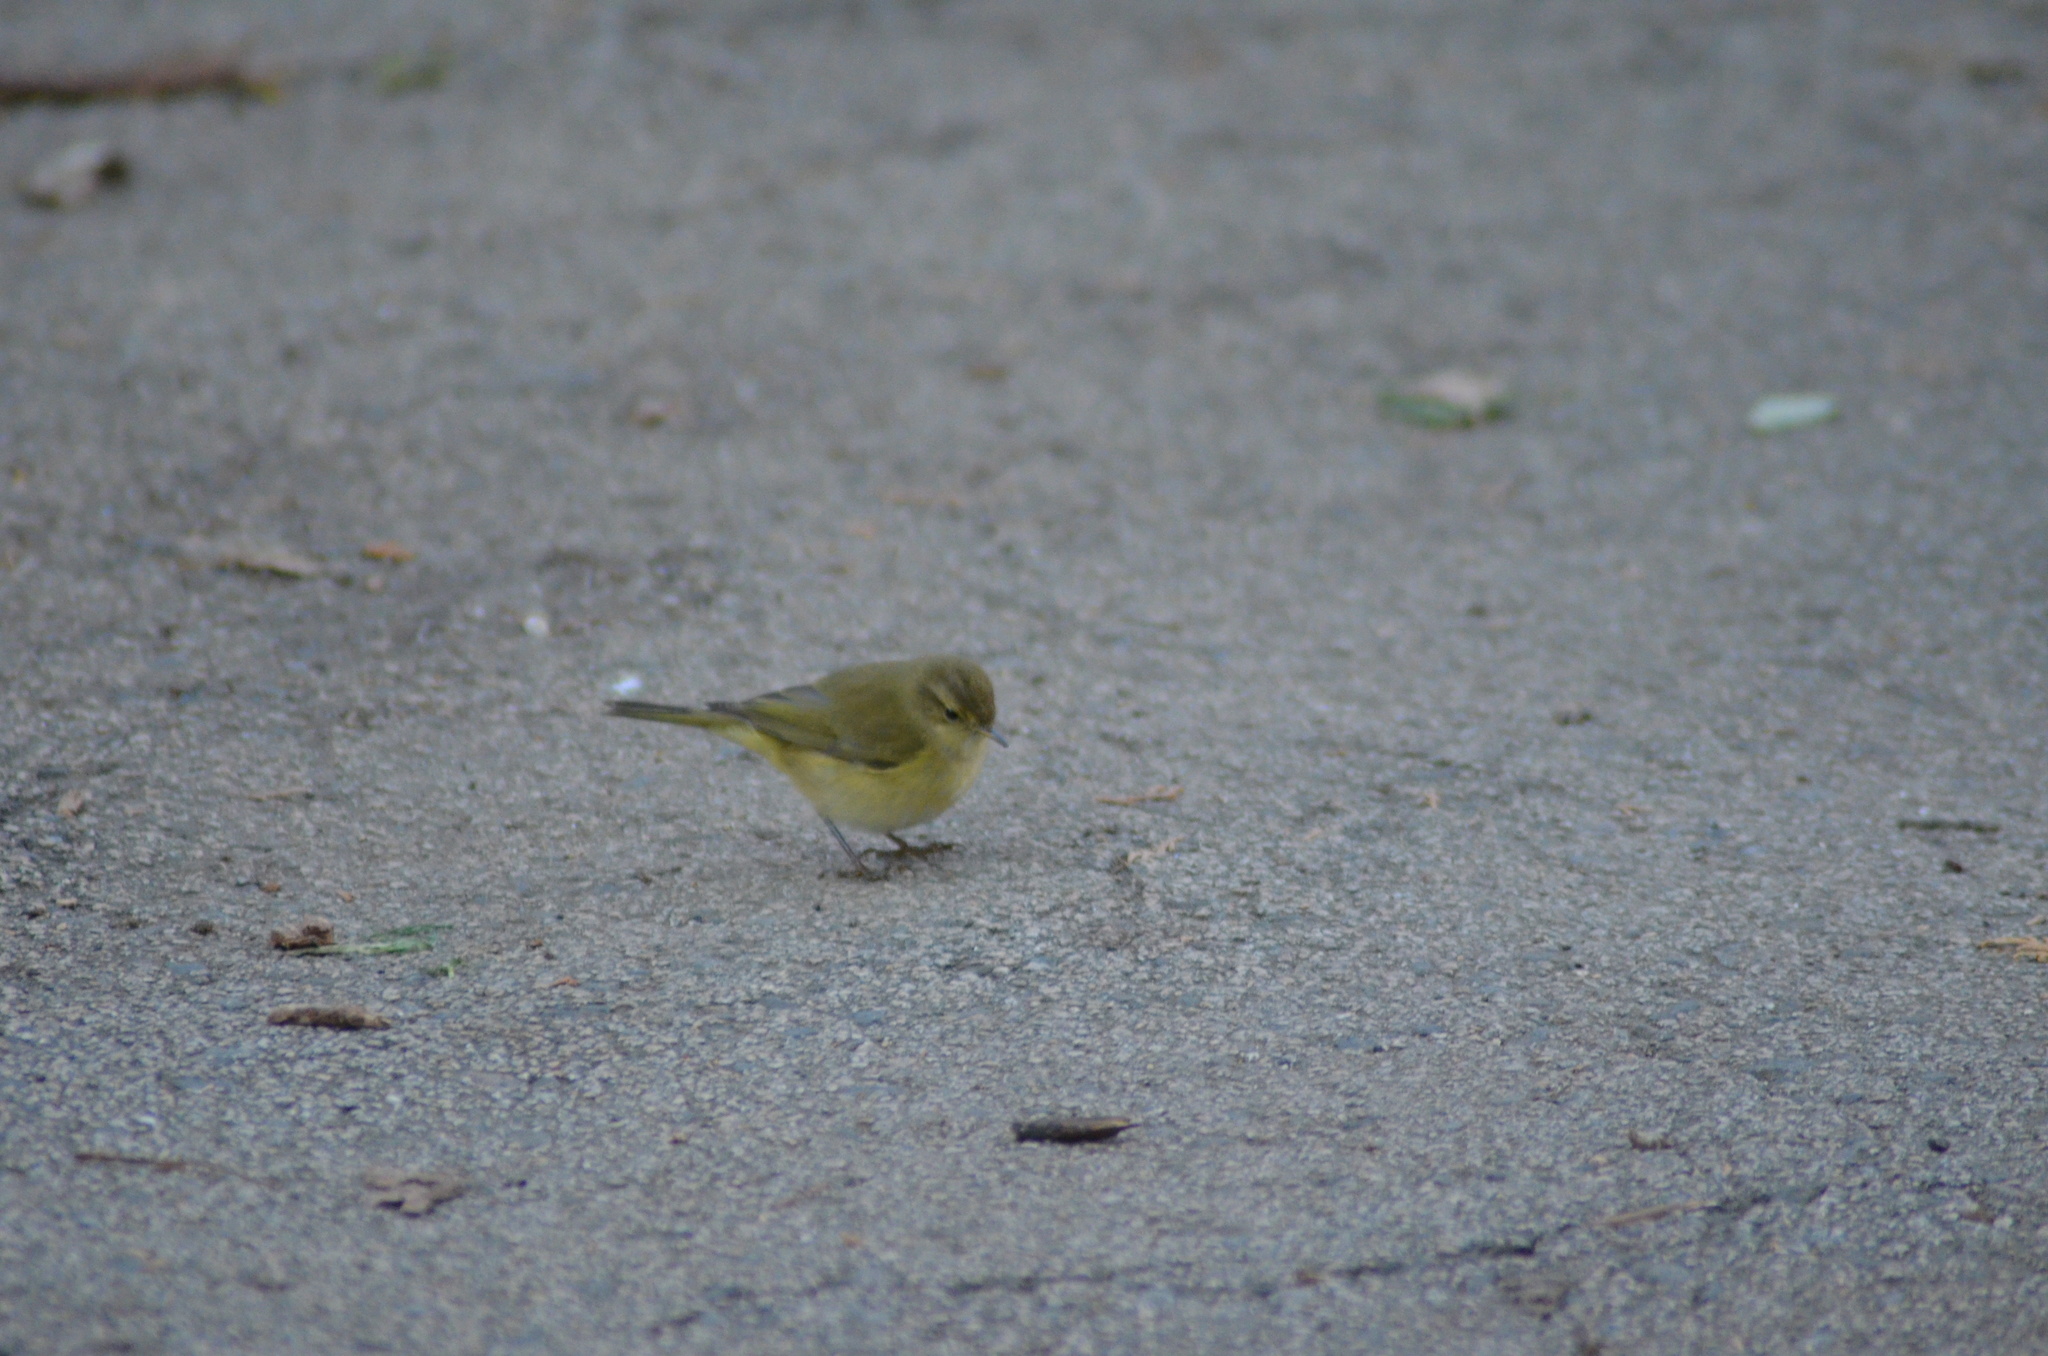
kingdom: Animalia
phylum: Chordata
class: Aves
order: Passeriformes
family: Phylloscopidae
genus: Phylloscopus
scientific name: Phylloscopus collybita
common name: Common chiffchaff
